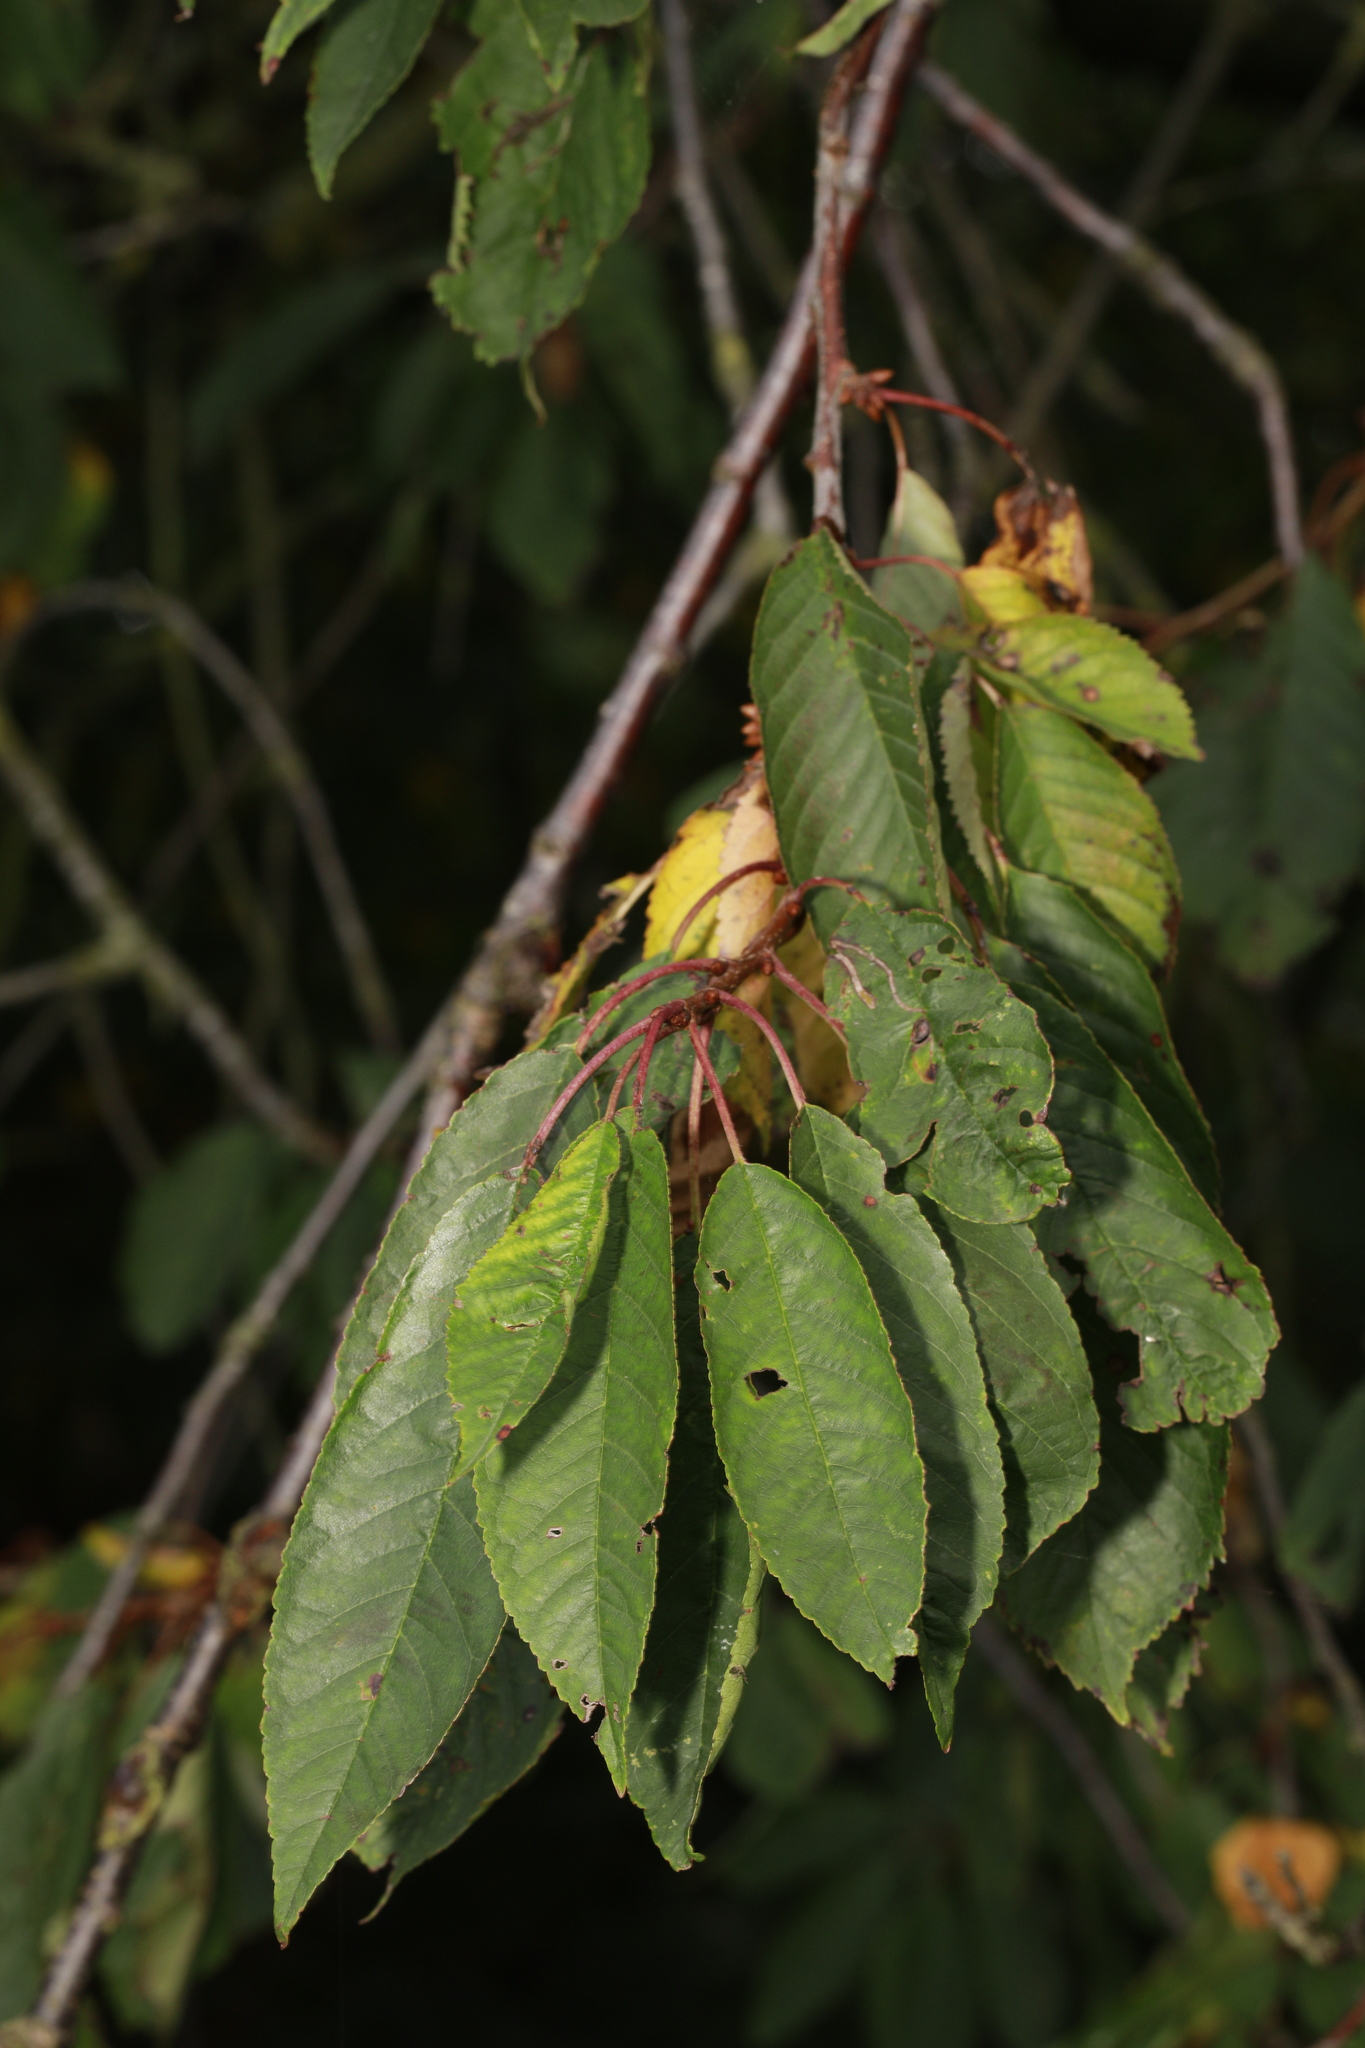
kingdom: Plantae
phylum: Tracheophyta
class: Magnoliopsida
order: Rosales
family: Rosaceae
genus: Prunus
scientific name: Prunus avium
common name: Sweet cherry
